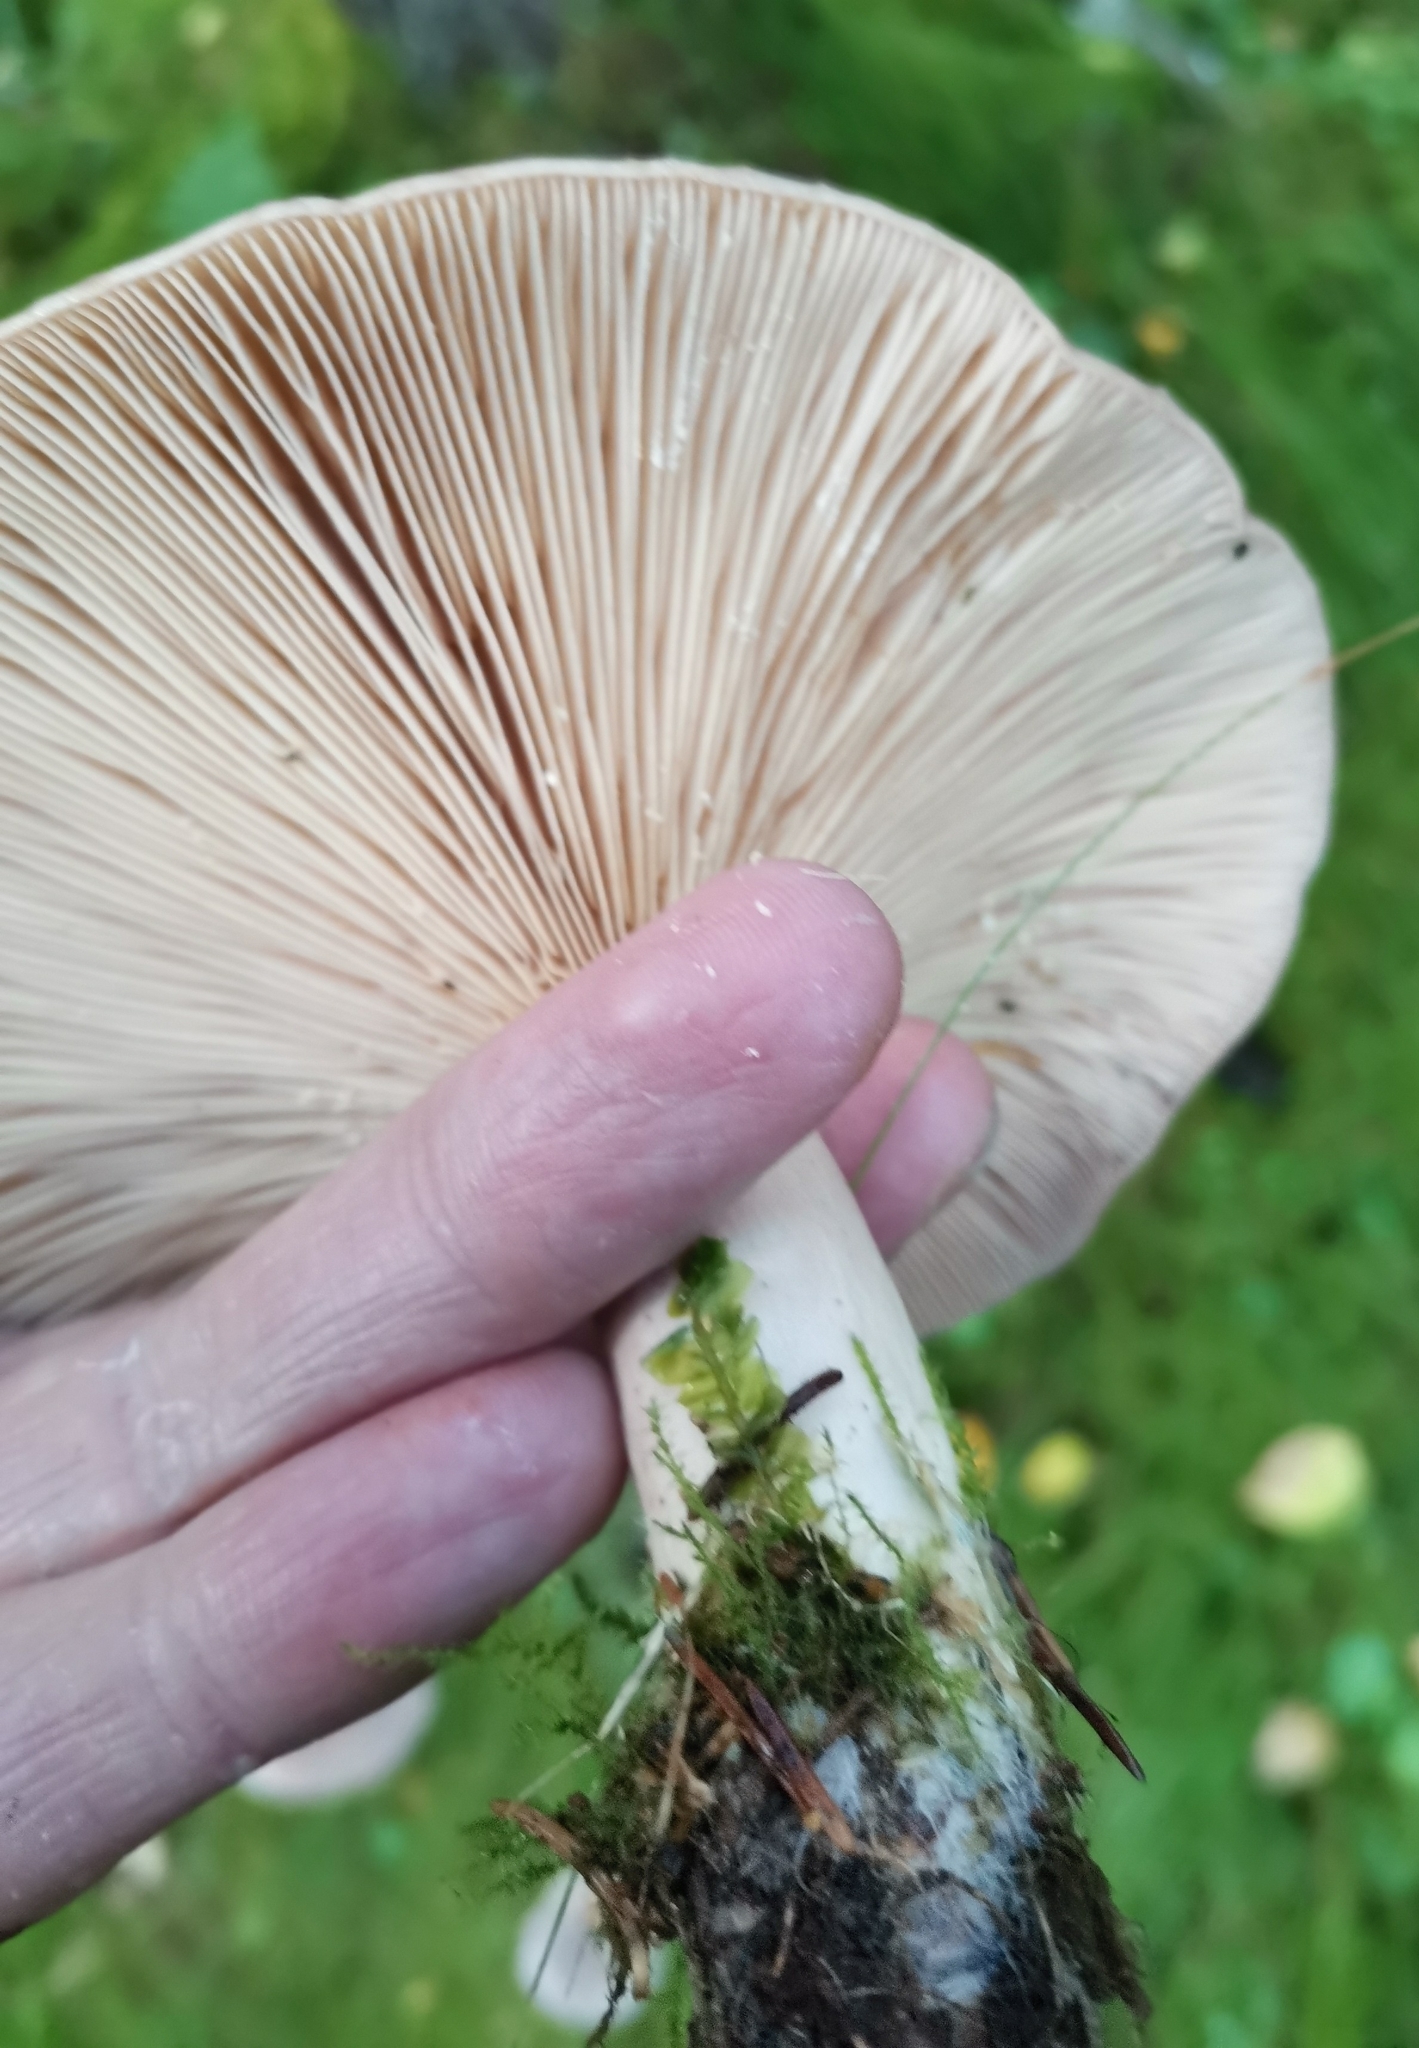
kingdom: Fungi
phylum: Basidiomycota
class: Agaricomycetes
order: Russulales
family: Russulaceae
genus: Lactarius
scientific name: Lactarius trivialis
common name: Tacked milkcap
